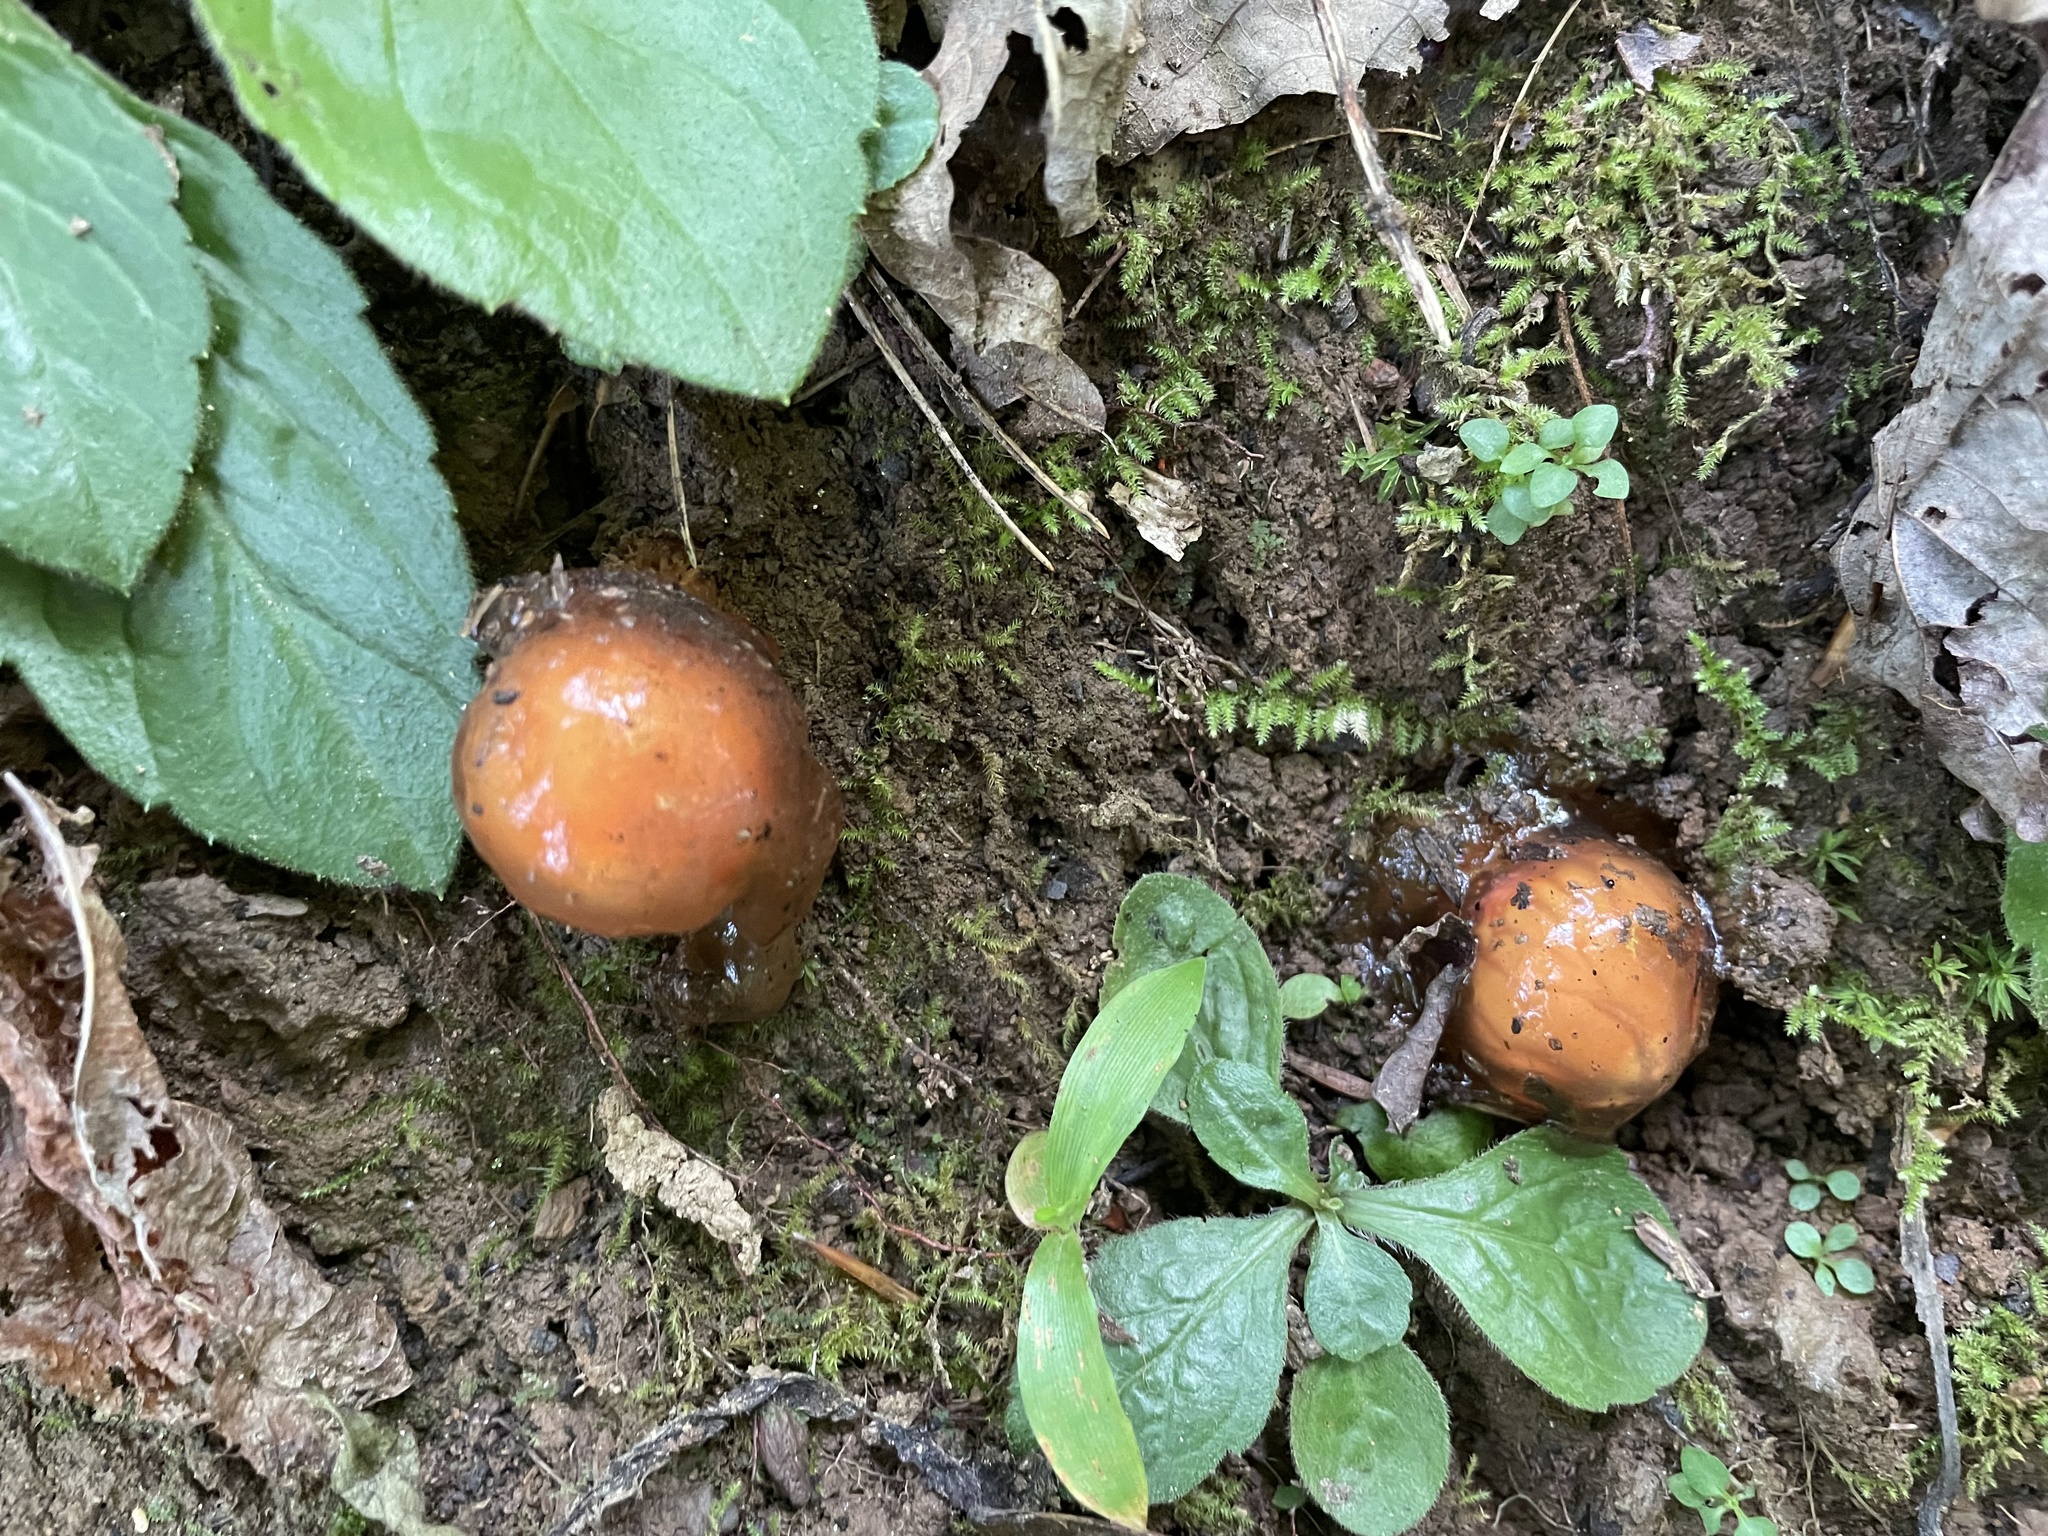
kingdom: Fungi
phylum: Basidiomycota
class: Agaricomycetes
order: Boletales
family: Calostomataceae
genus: Calostoma
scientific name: Calostoma cinnabarinum
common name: Stalked puffball-in-aspic
